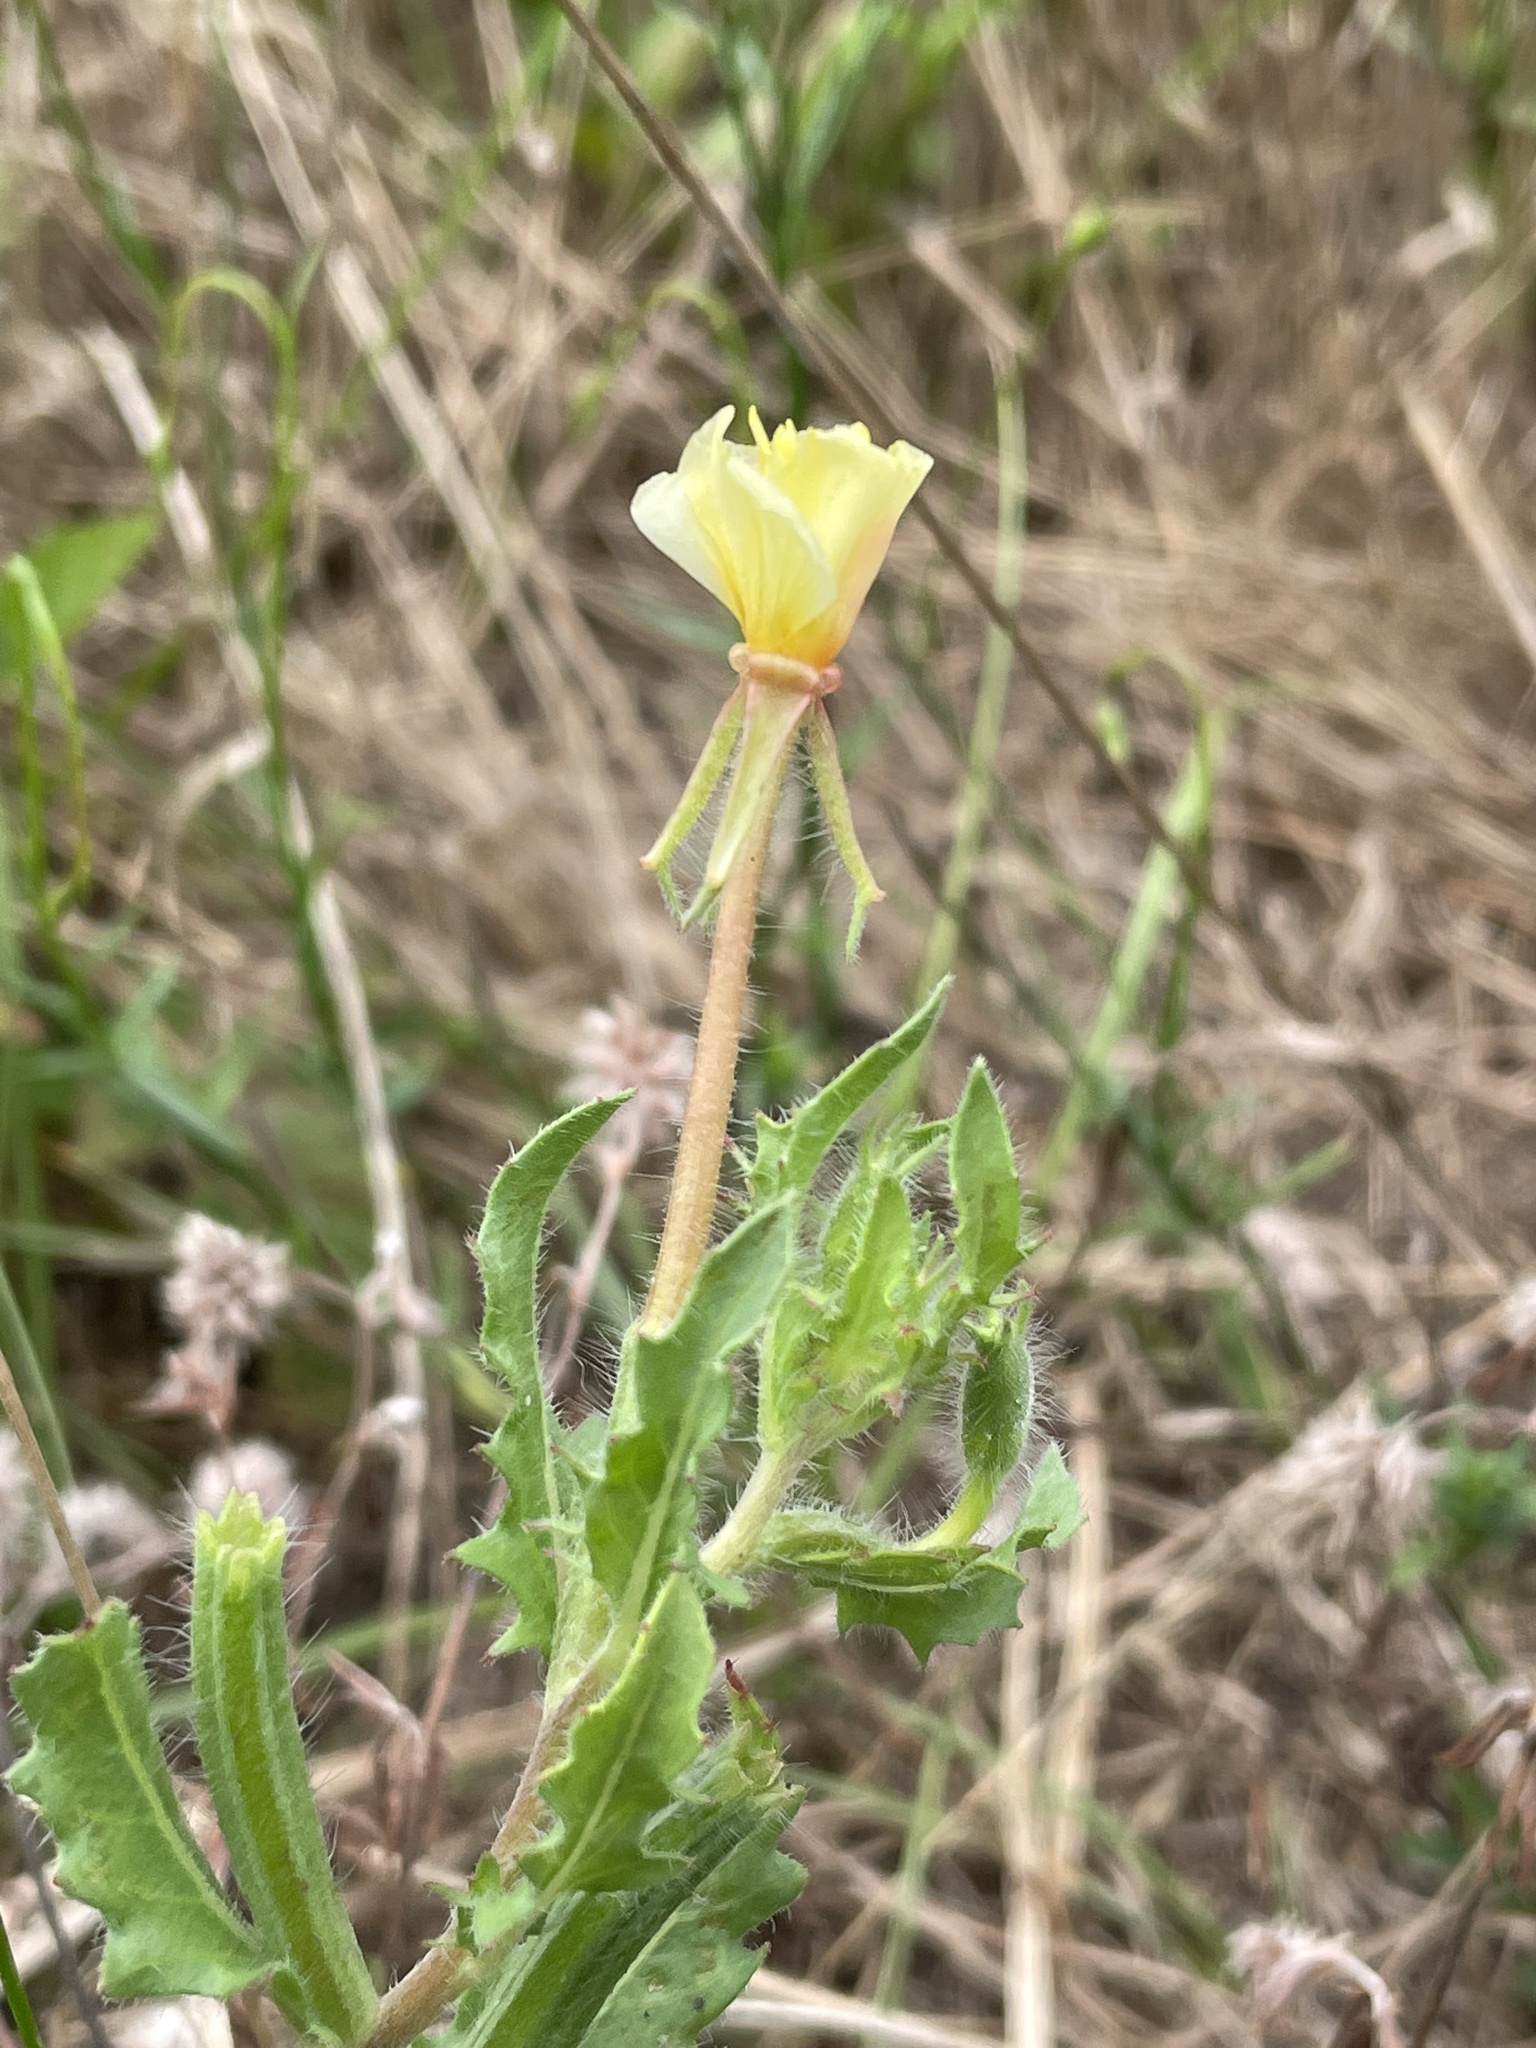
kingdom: Plantae
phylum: Tracheophyta
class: Magnoliopsida
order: Myrtales
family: Onagraceae
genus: Oenothera
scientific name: Oenothera laciniata
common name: Cut-leaved evening-primrose
